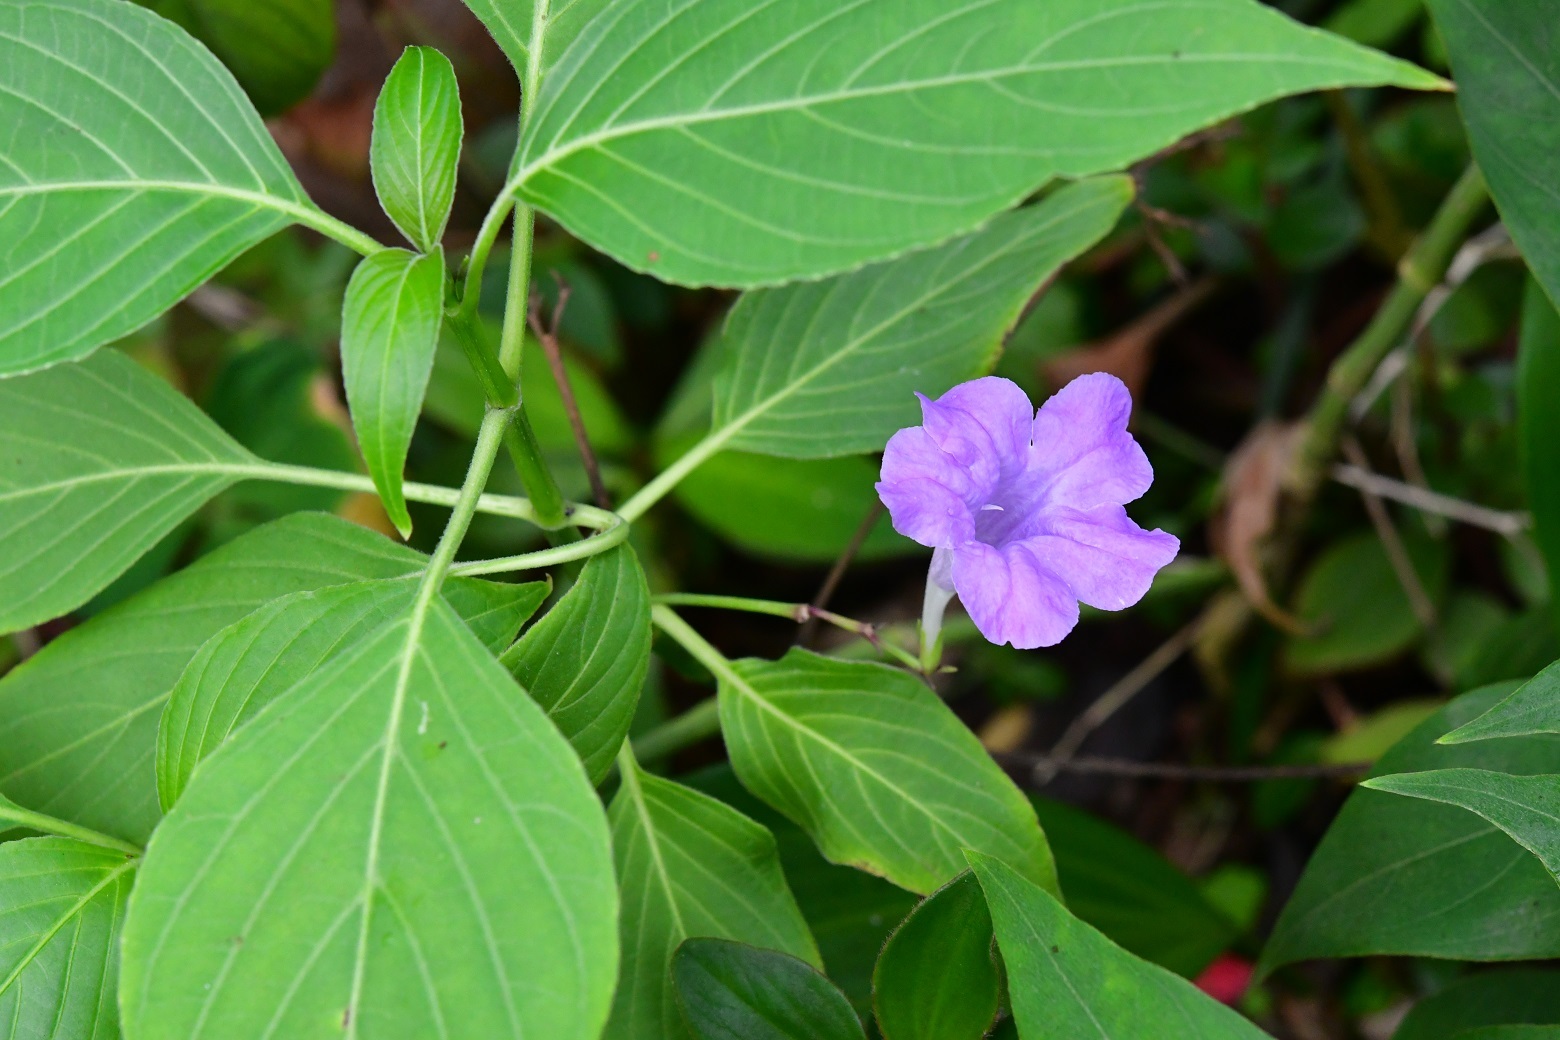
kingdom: Plantae
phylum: Tracheophyta
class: Magnoliopsida
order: Lamiales
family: Acanthaceae
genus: Ruellia
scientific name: Ruellia breedlovei
